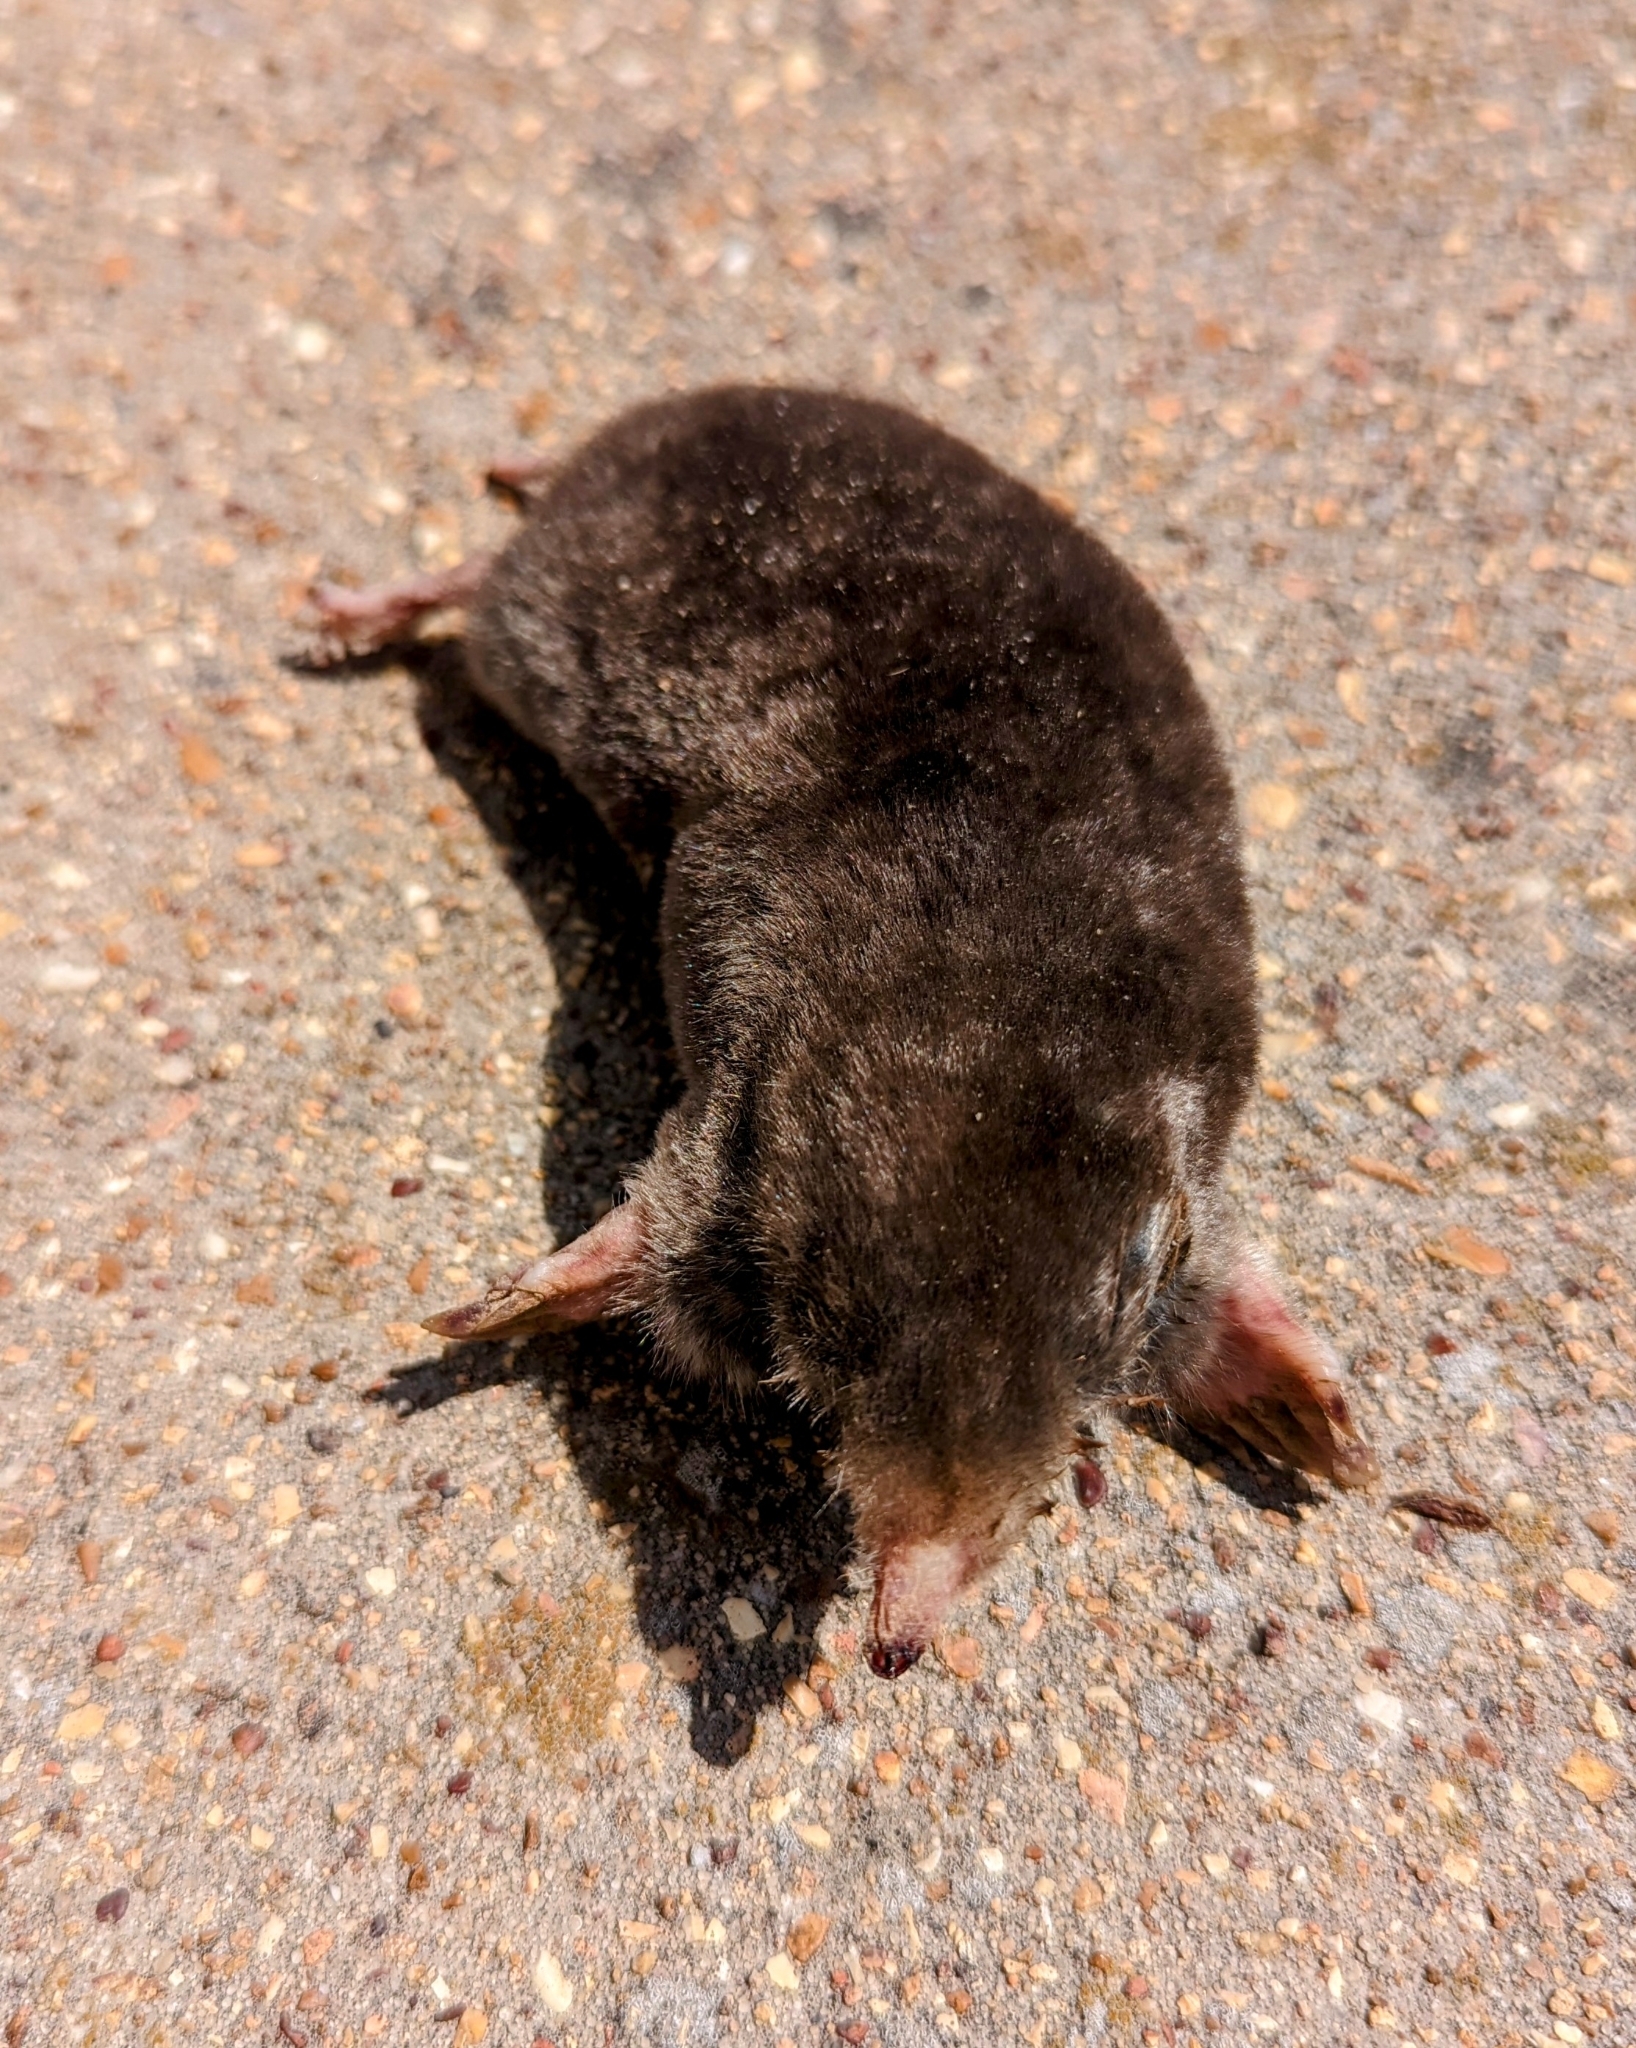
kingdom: Animalia
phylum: Chordata
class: Mammalia
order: Soricomorpha
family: Talpidae
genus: Scalopus
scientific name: Scalopus aquaticus
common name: Eastern mole
